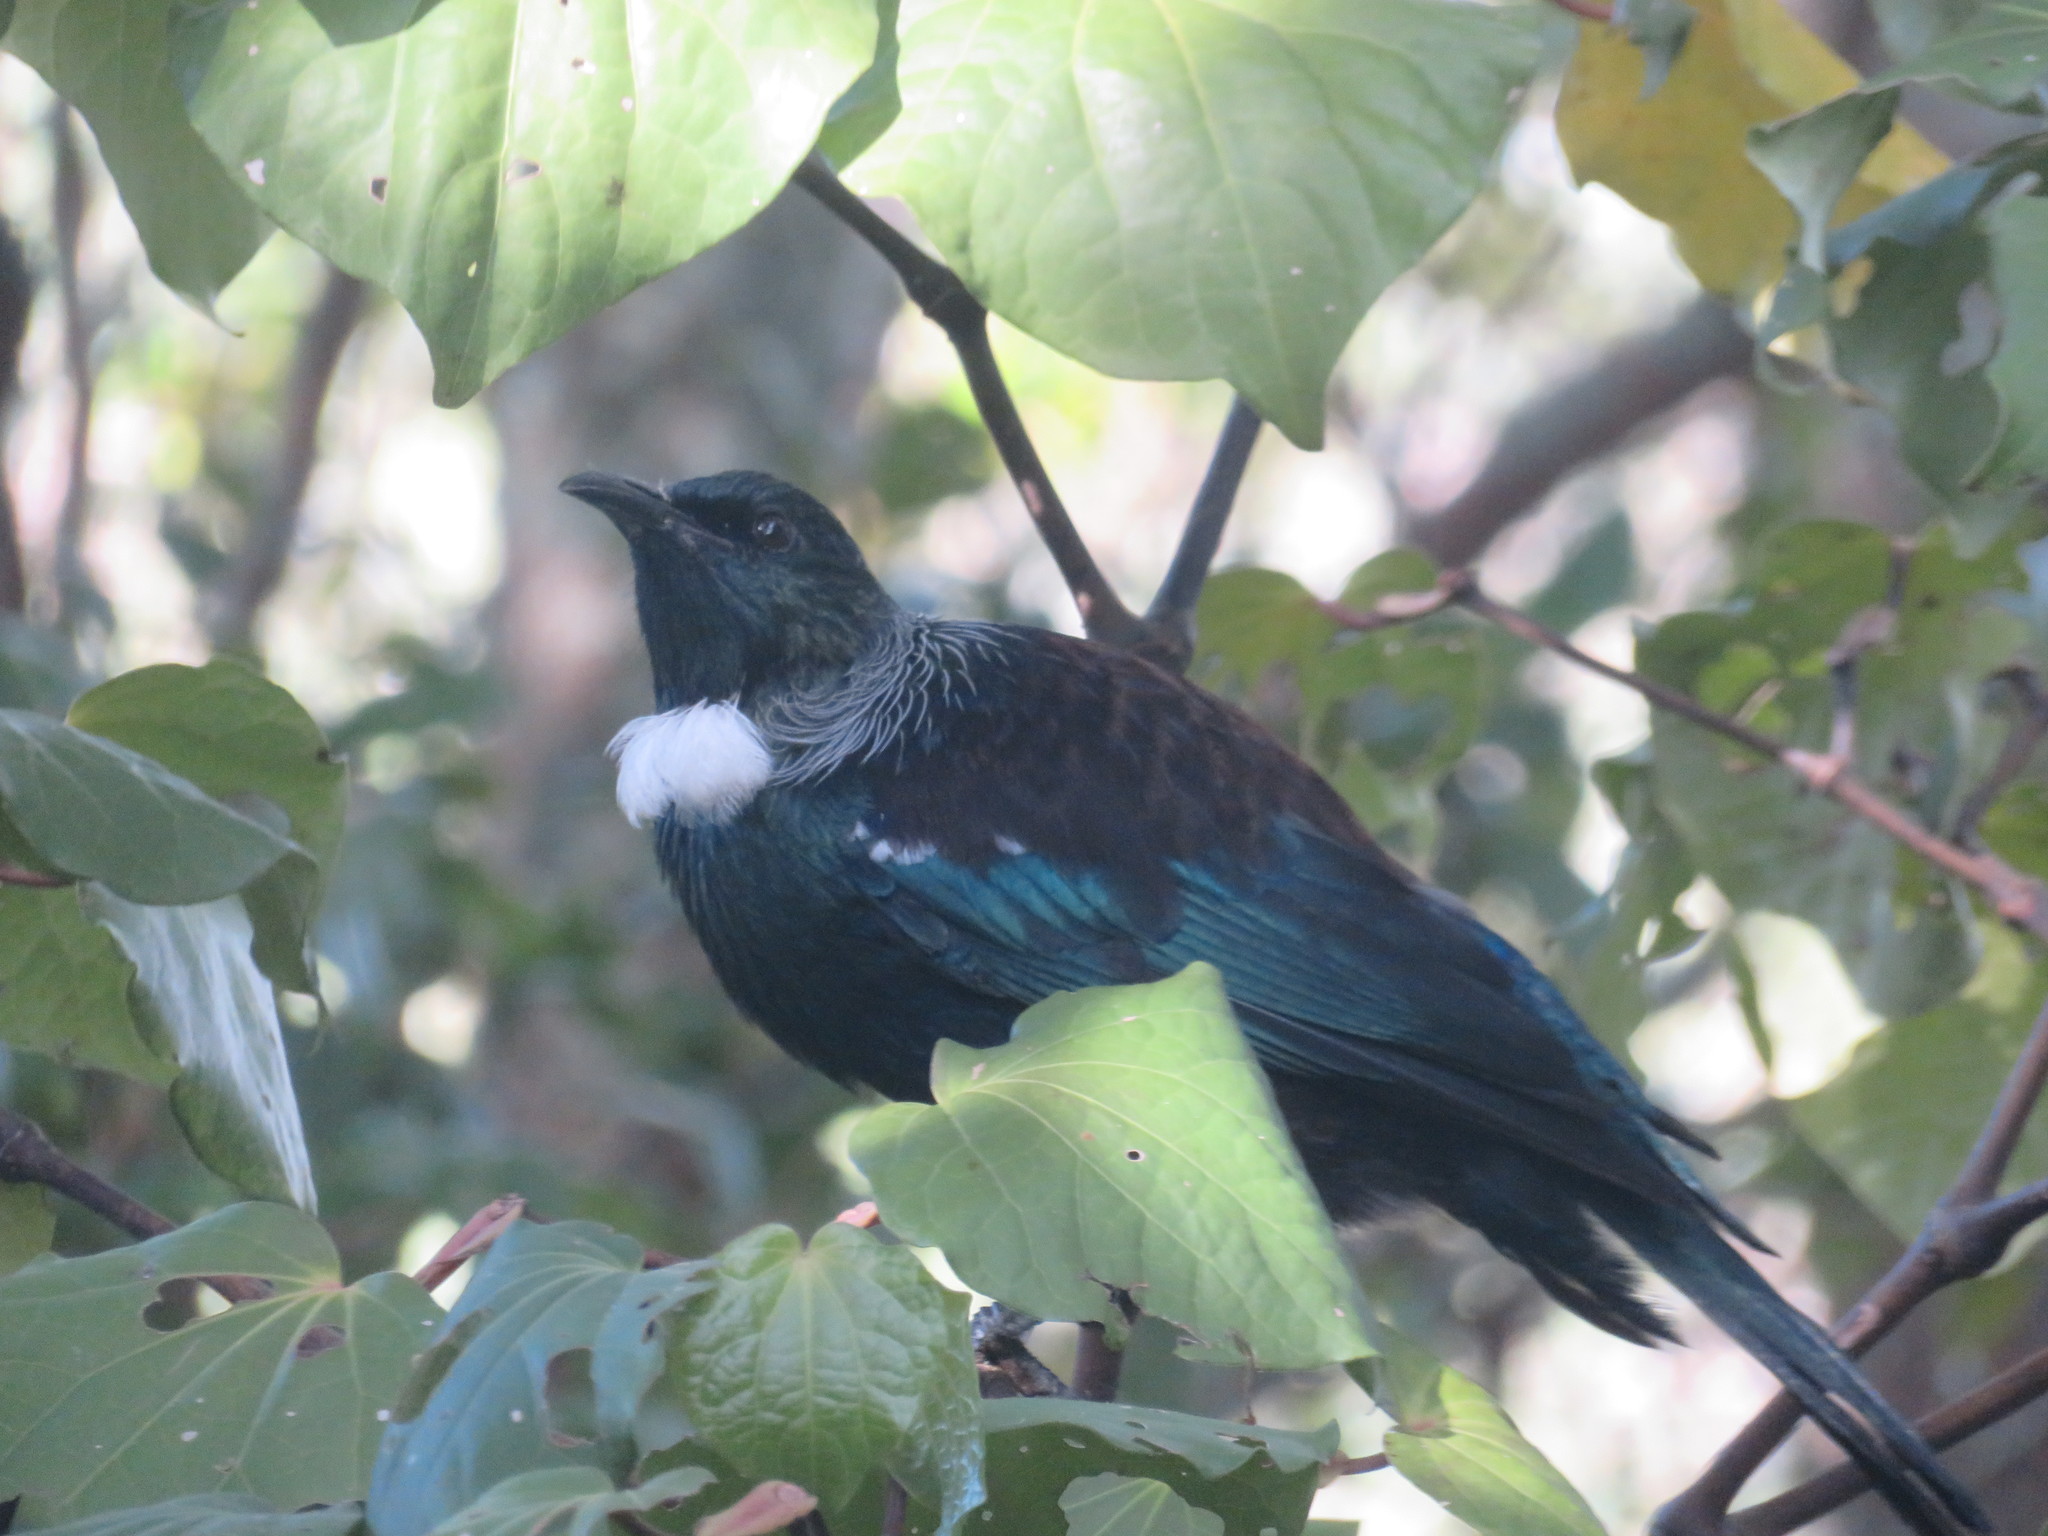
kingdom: Animalia
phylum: Chordata
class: Aves
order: Passeriformes
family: Meliphagidae
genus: Prosthemadera
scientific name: Prosthemadera novaeseelandiae
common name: Tui
